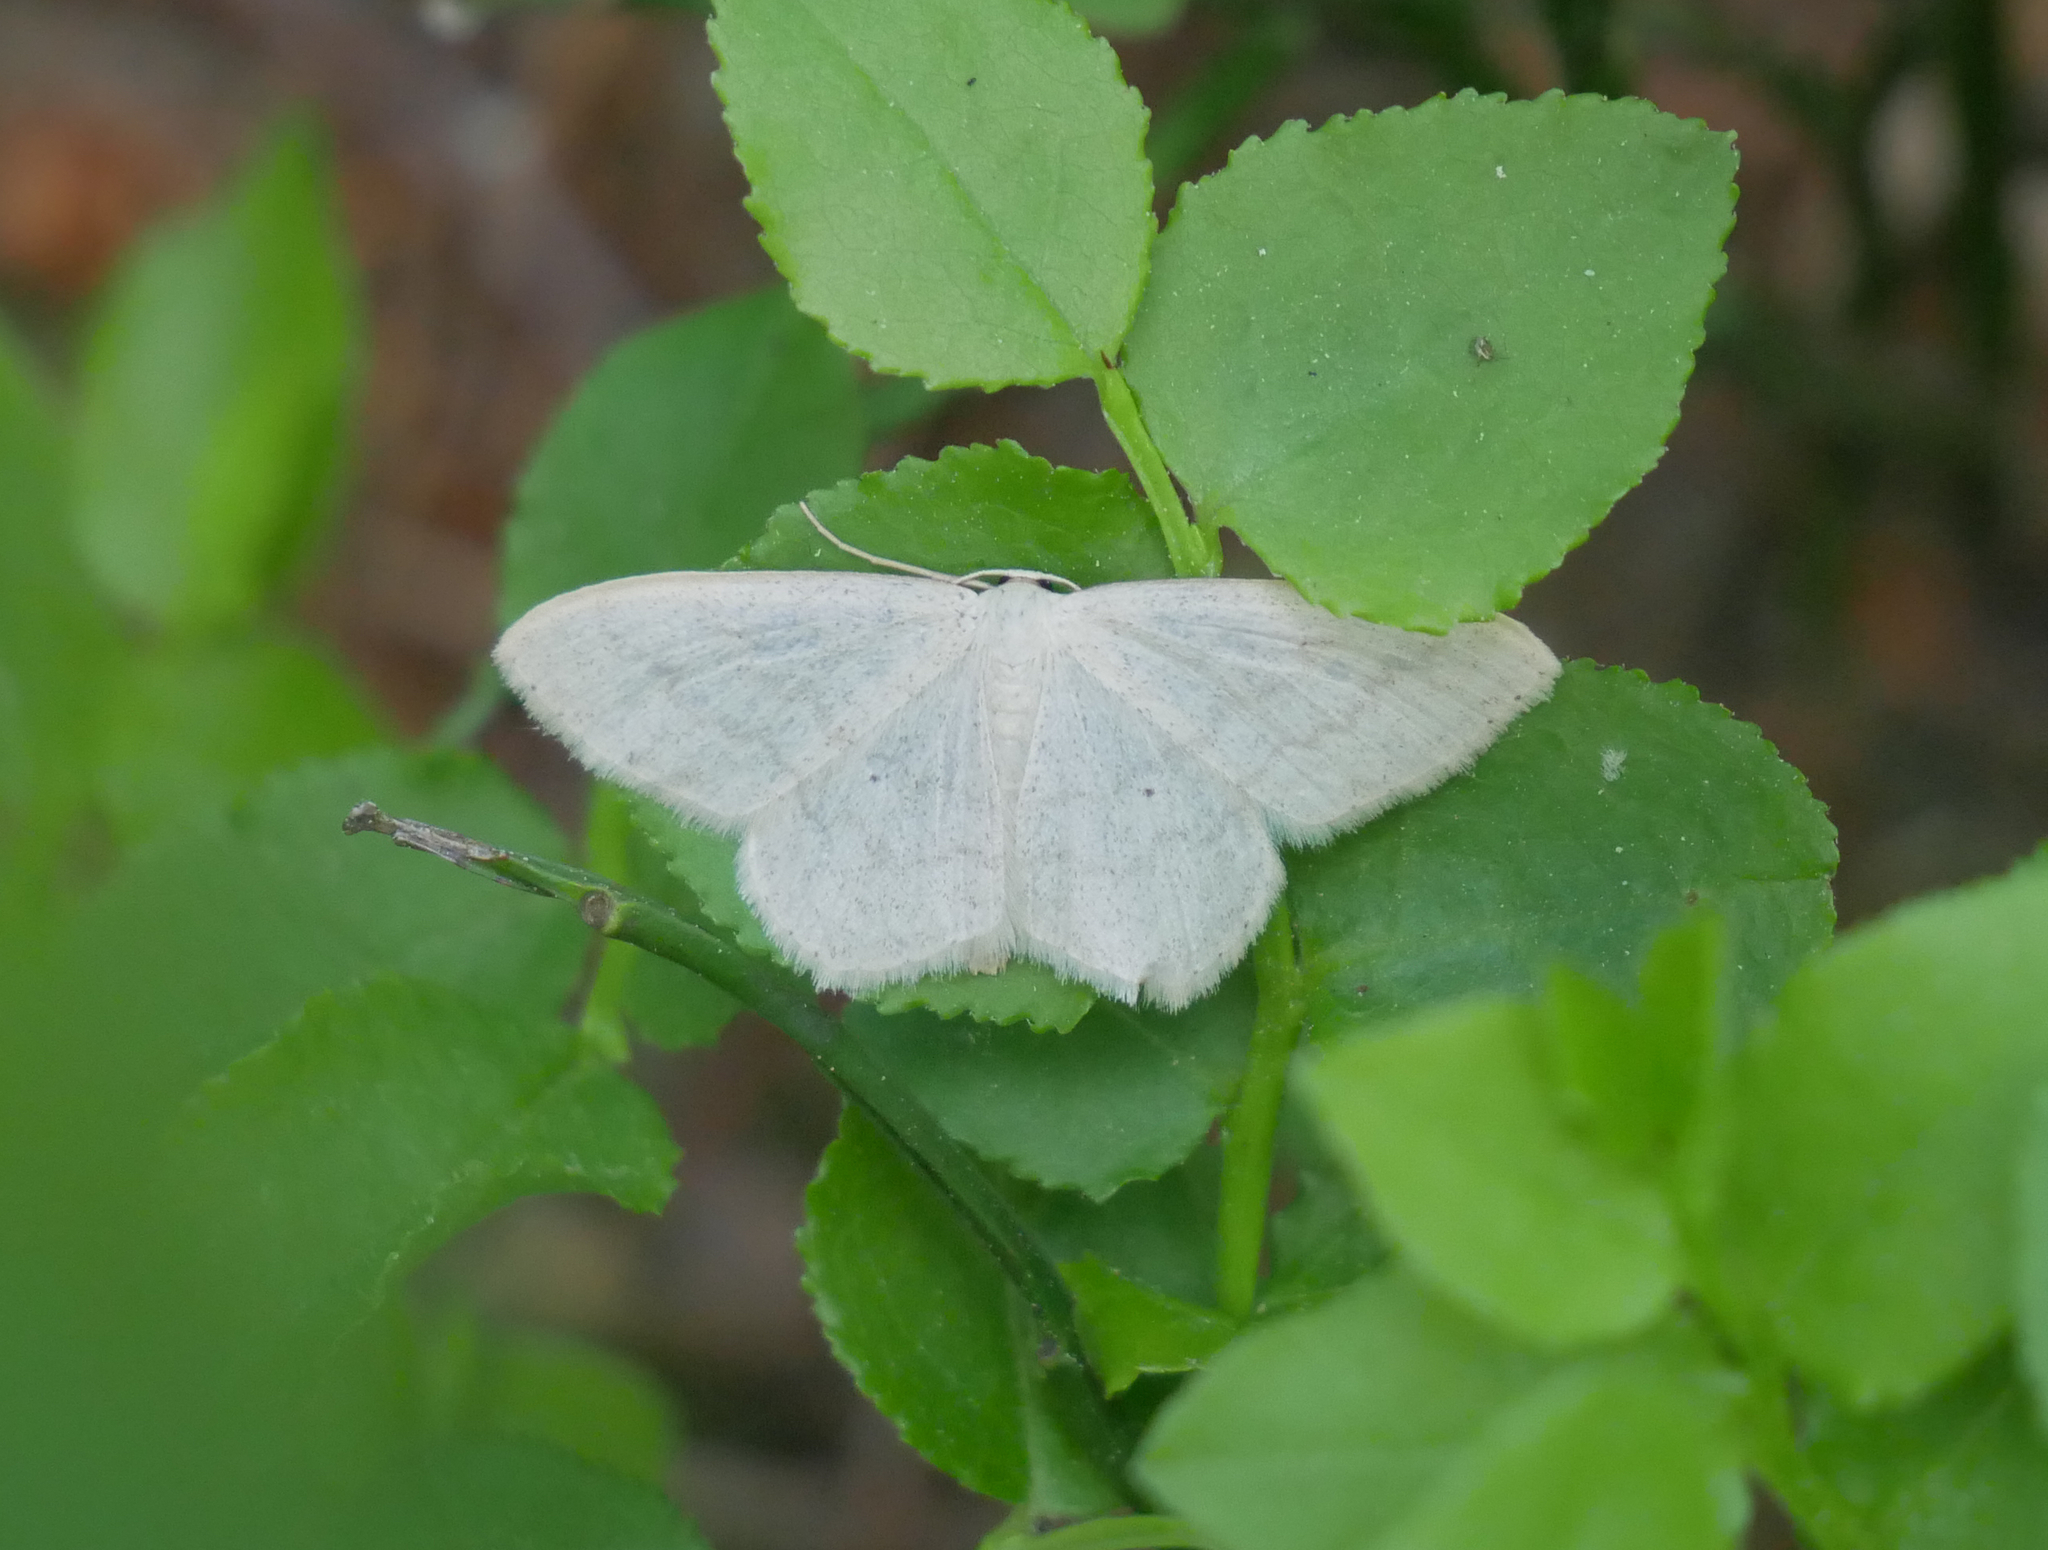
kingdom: Animalia
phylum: Arthropoda
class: Insecta
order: Lepidoptera
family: Geometridae
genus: Scopula
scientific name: Scopula floslactata
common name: Cream wave
